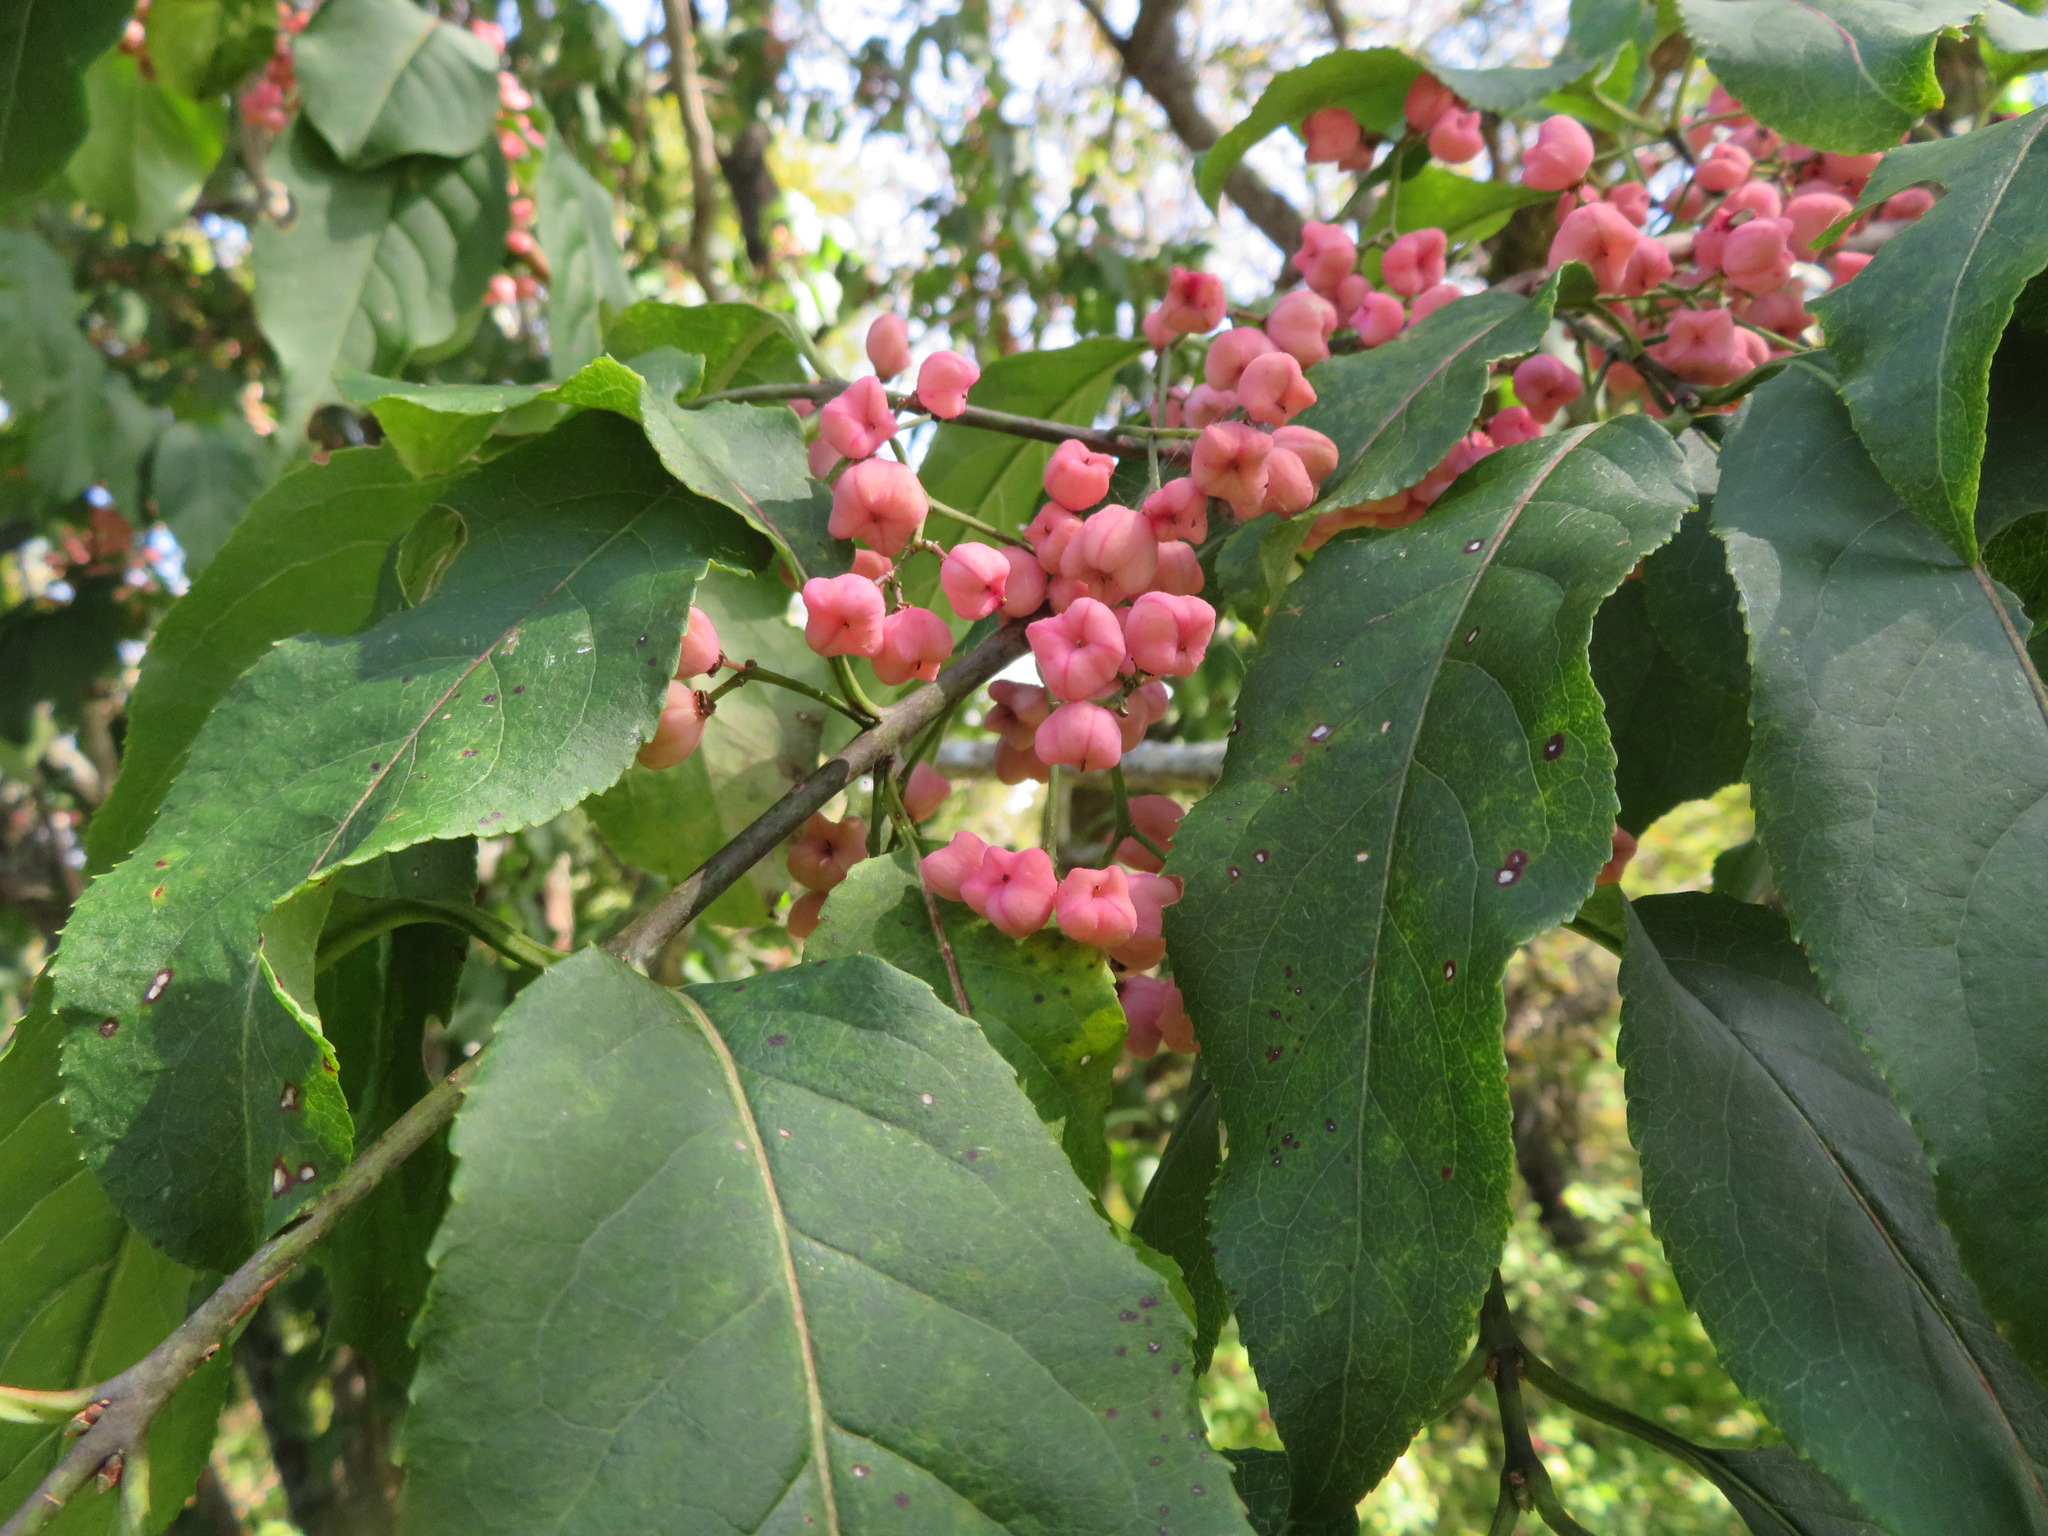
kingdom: Plantae
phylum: Tracheophyta
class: Magnoliopsida
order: Celastrales
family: Celastraceae
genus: Euonymus
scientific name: Euonymus hamiltonianus
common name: Hamilton's spindletree
